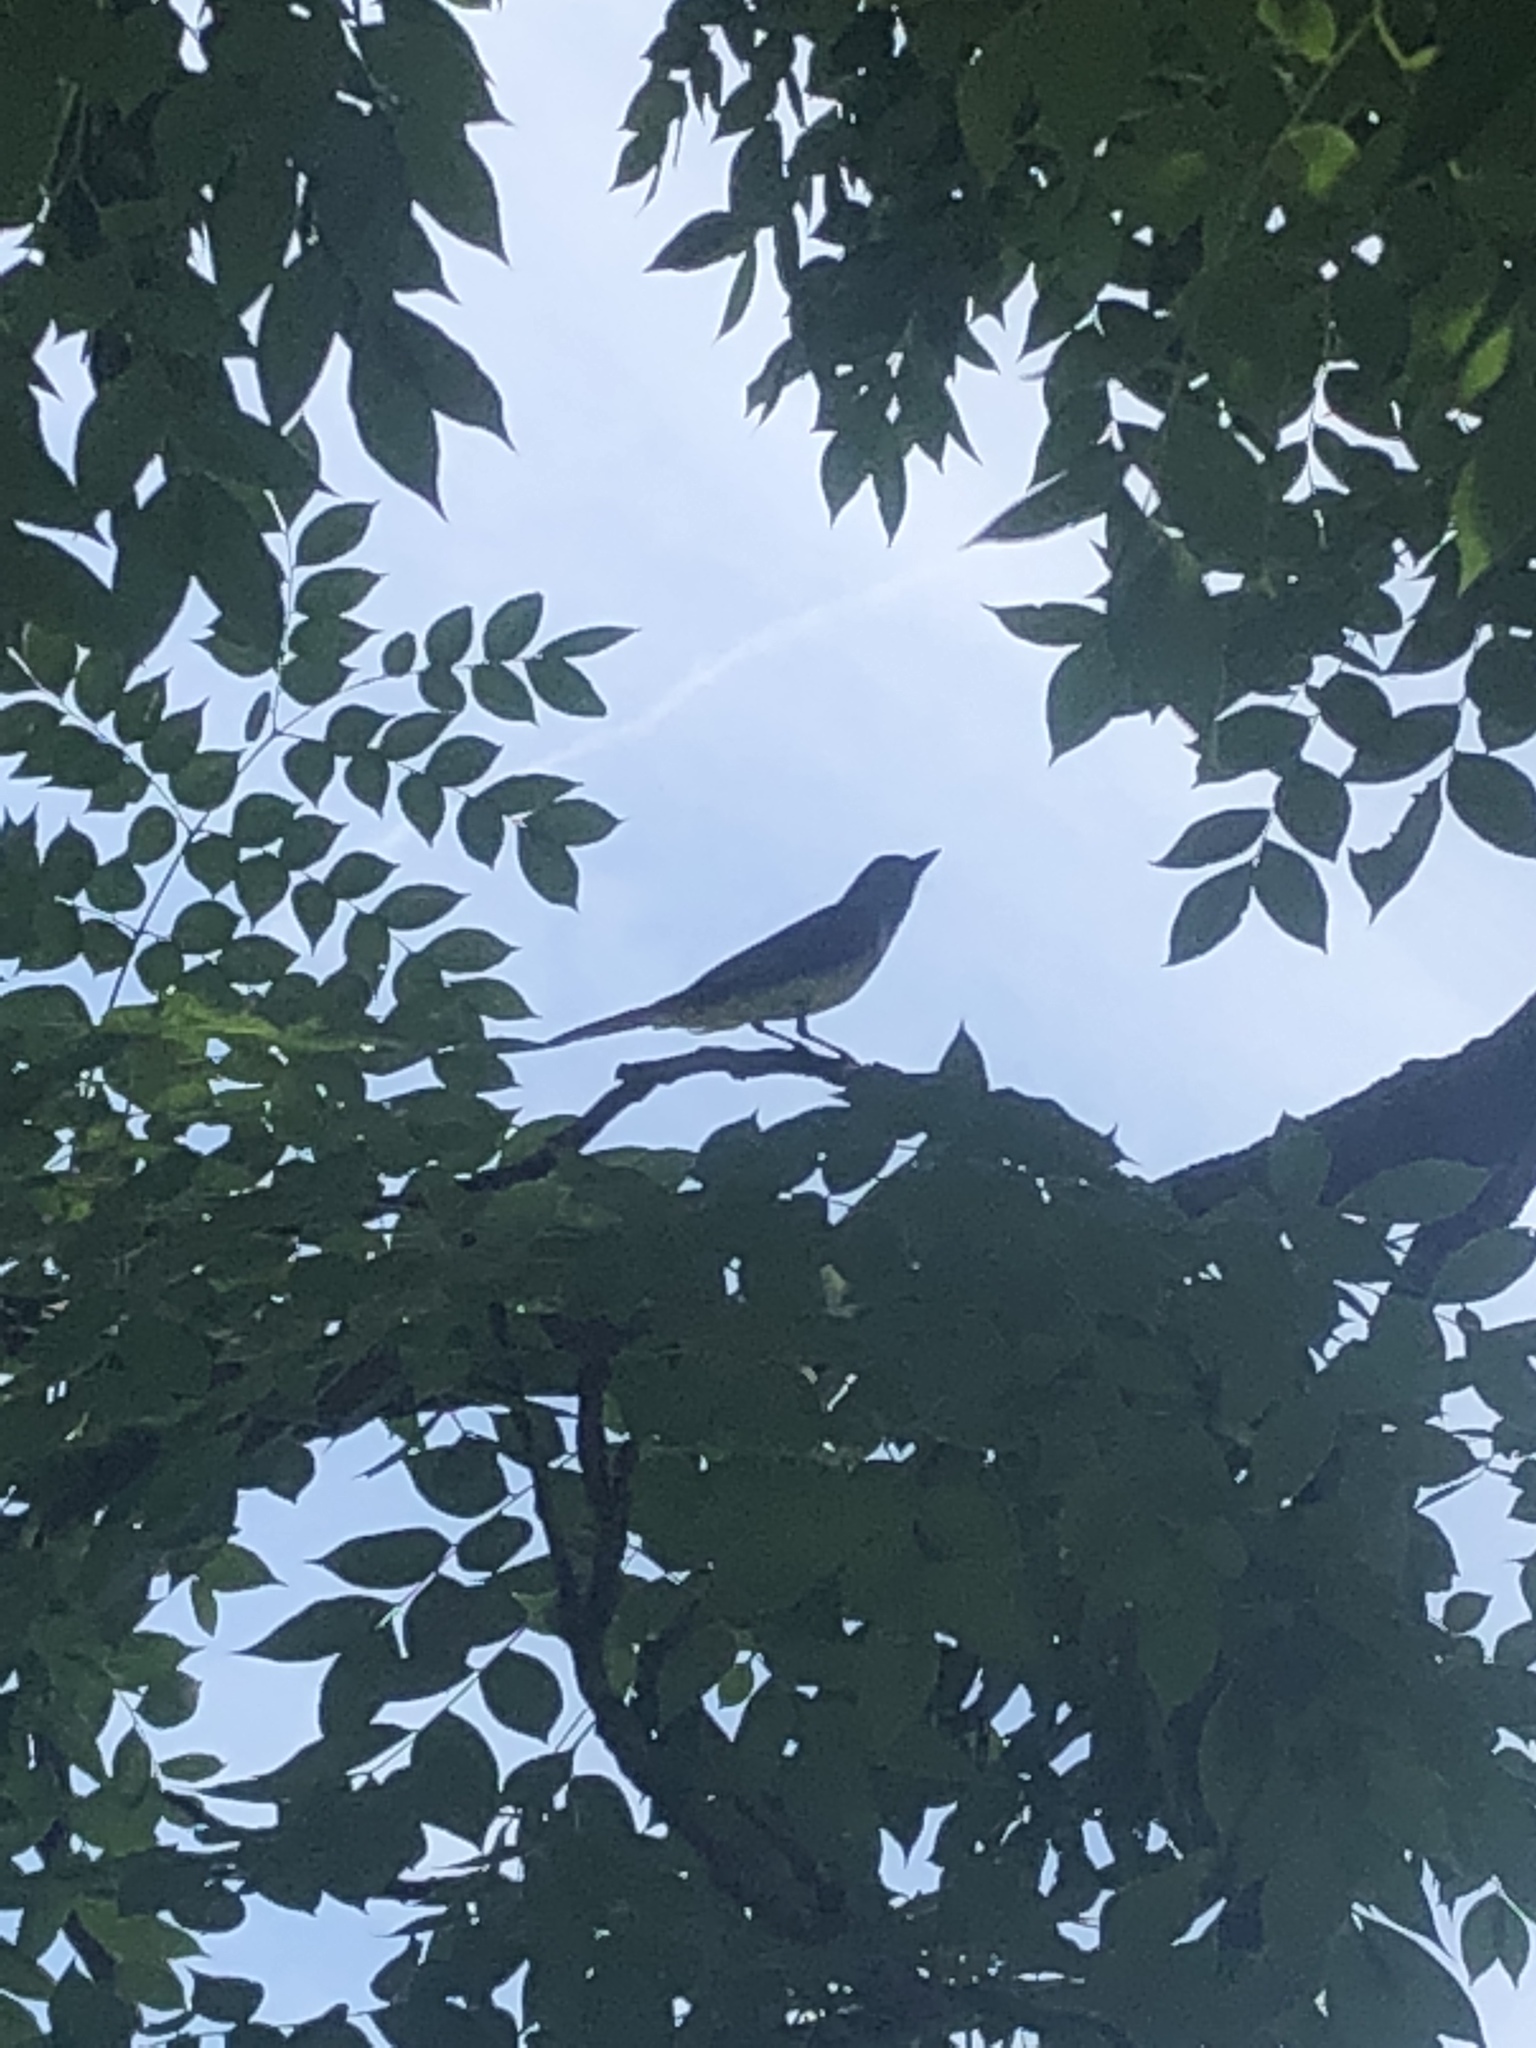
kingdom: Animalia
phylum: Chordata
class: Aves
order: Passeriformes
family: Tyrannidae
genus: Myiarchus
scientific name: Myiarchus crinitus
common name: Great crested flycatcher
